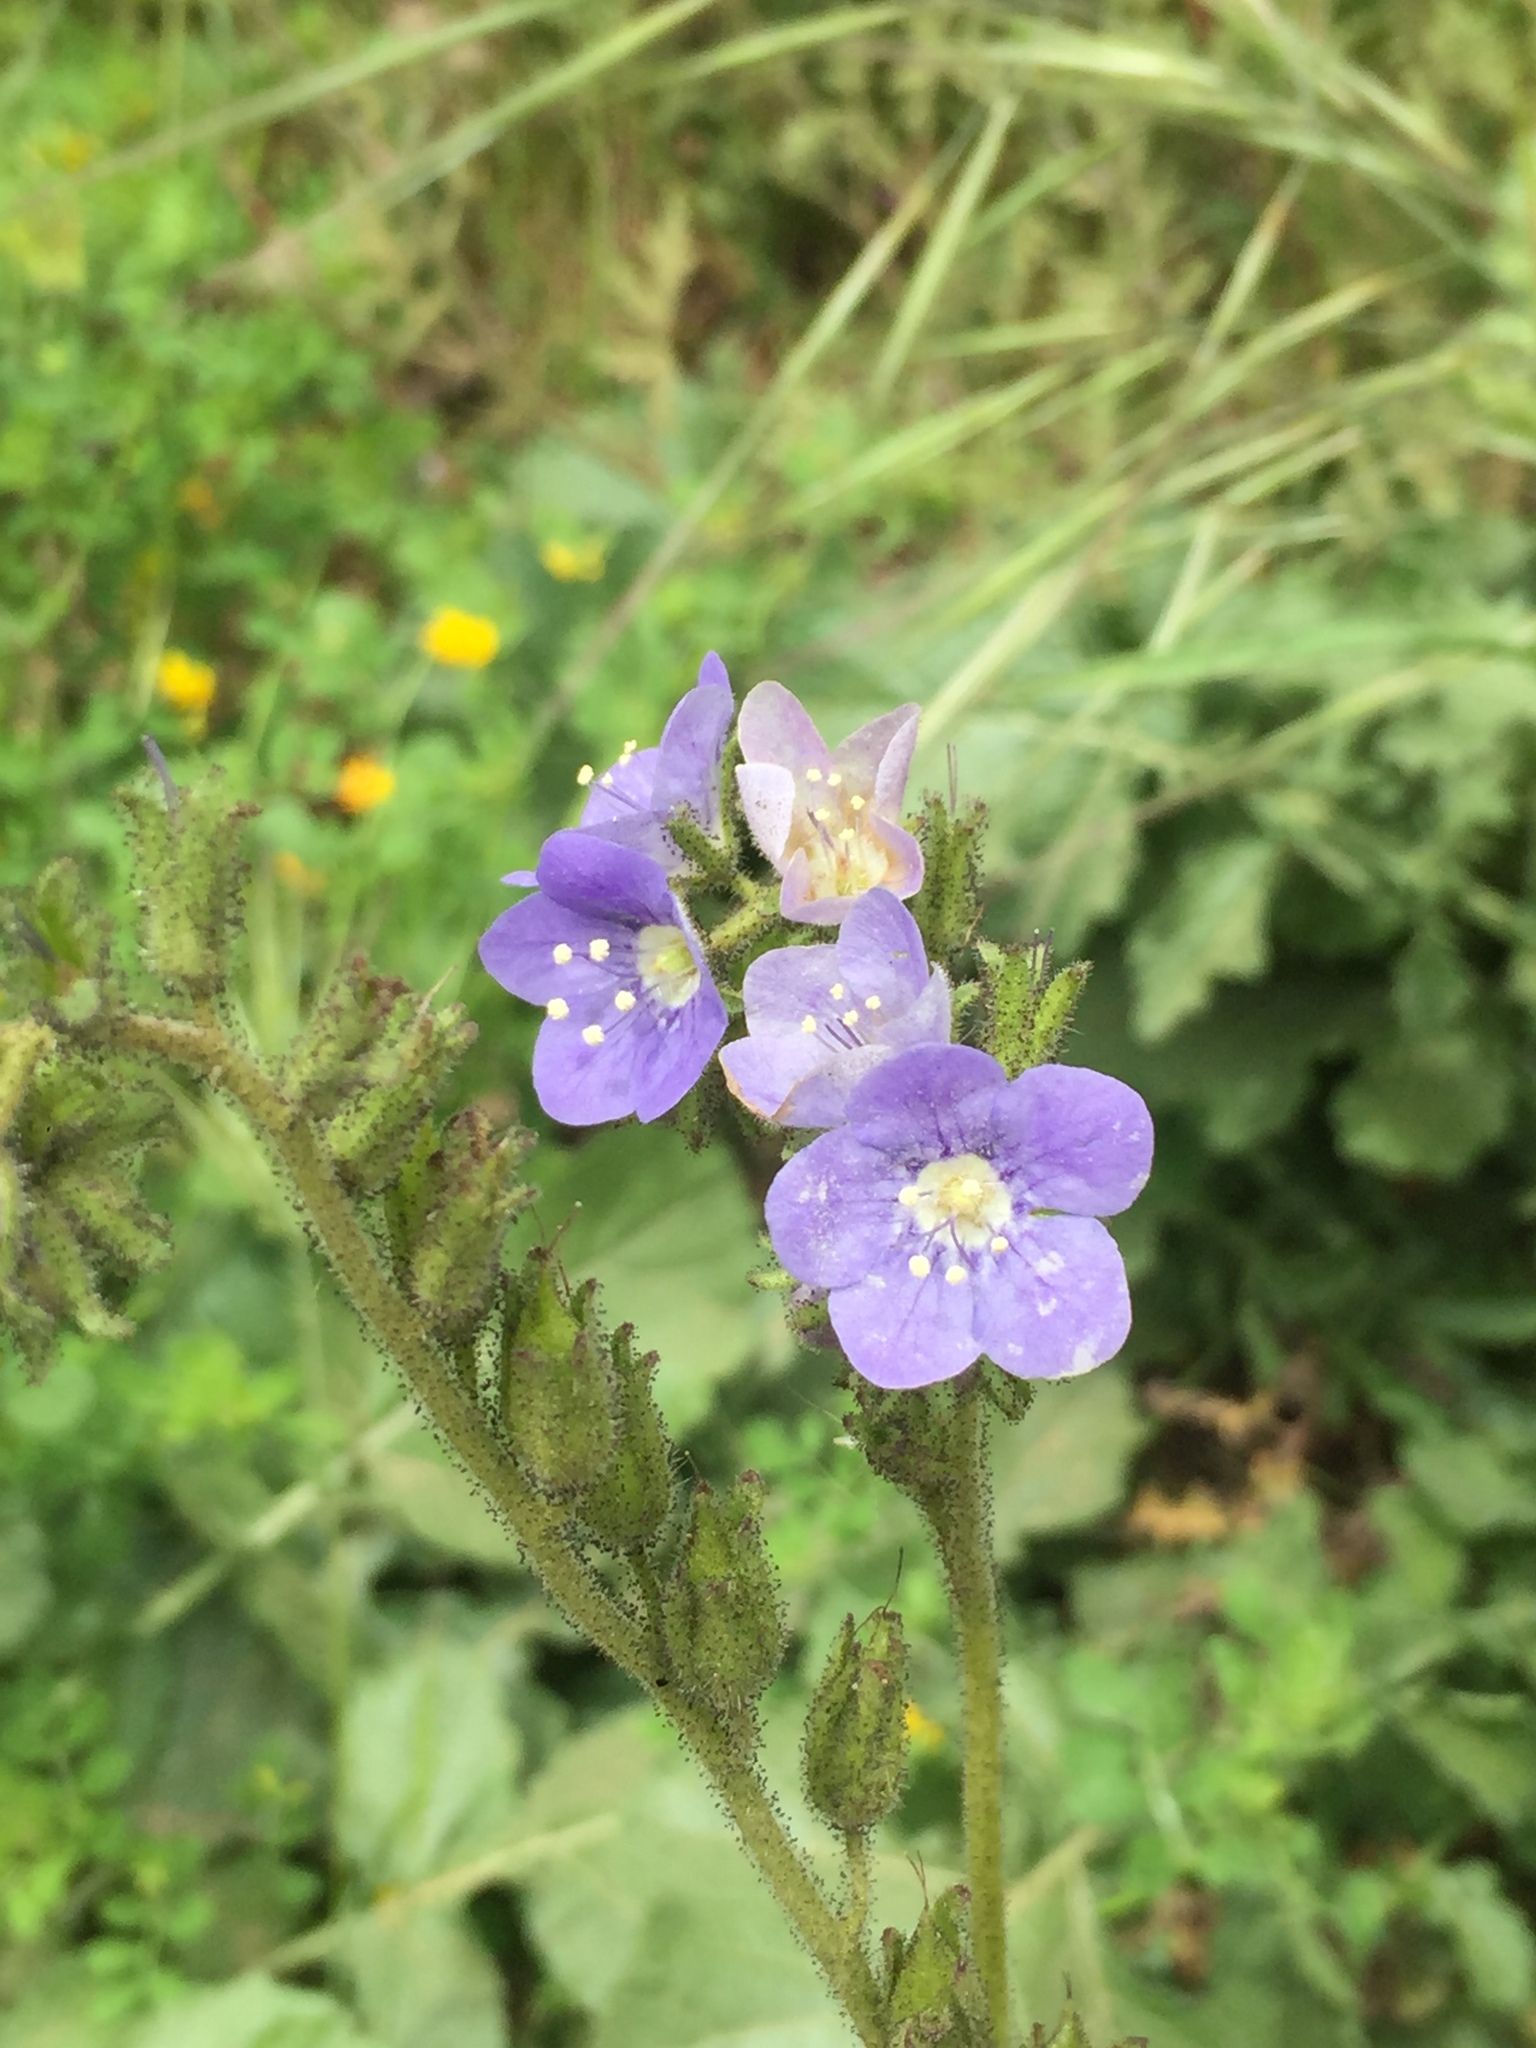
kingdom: Plantae
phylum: Tracheophyta
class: Magnoliopsida
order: Boraginales
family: Hydrophyllaceae
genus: Phacelia
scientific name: Phacelia grandiflora
